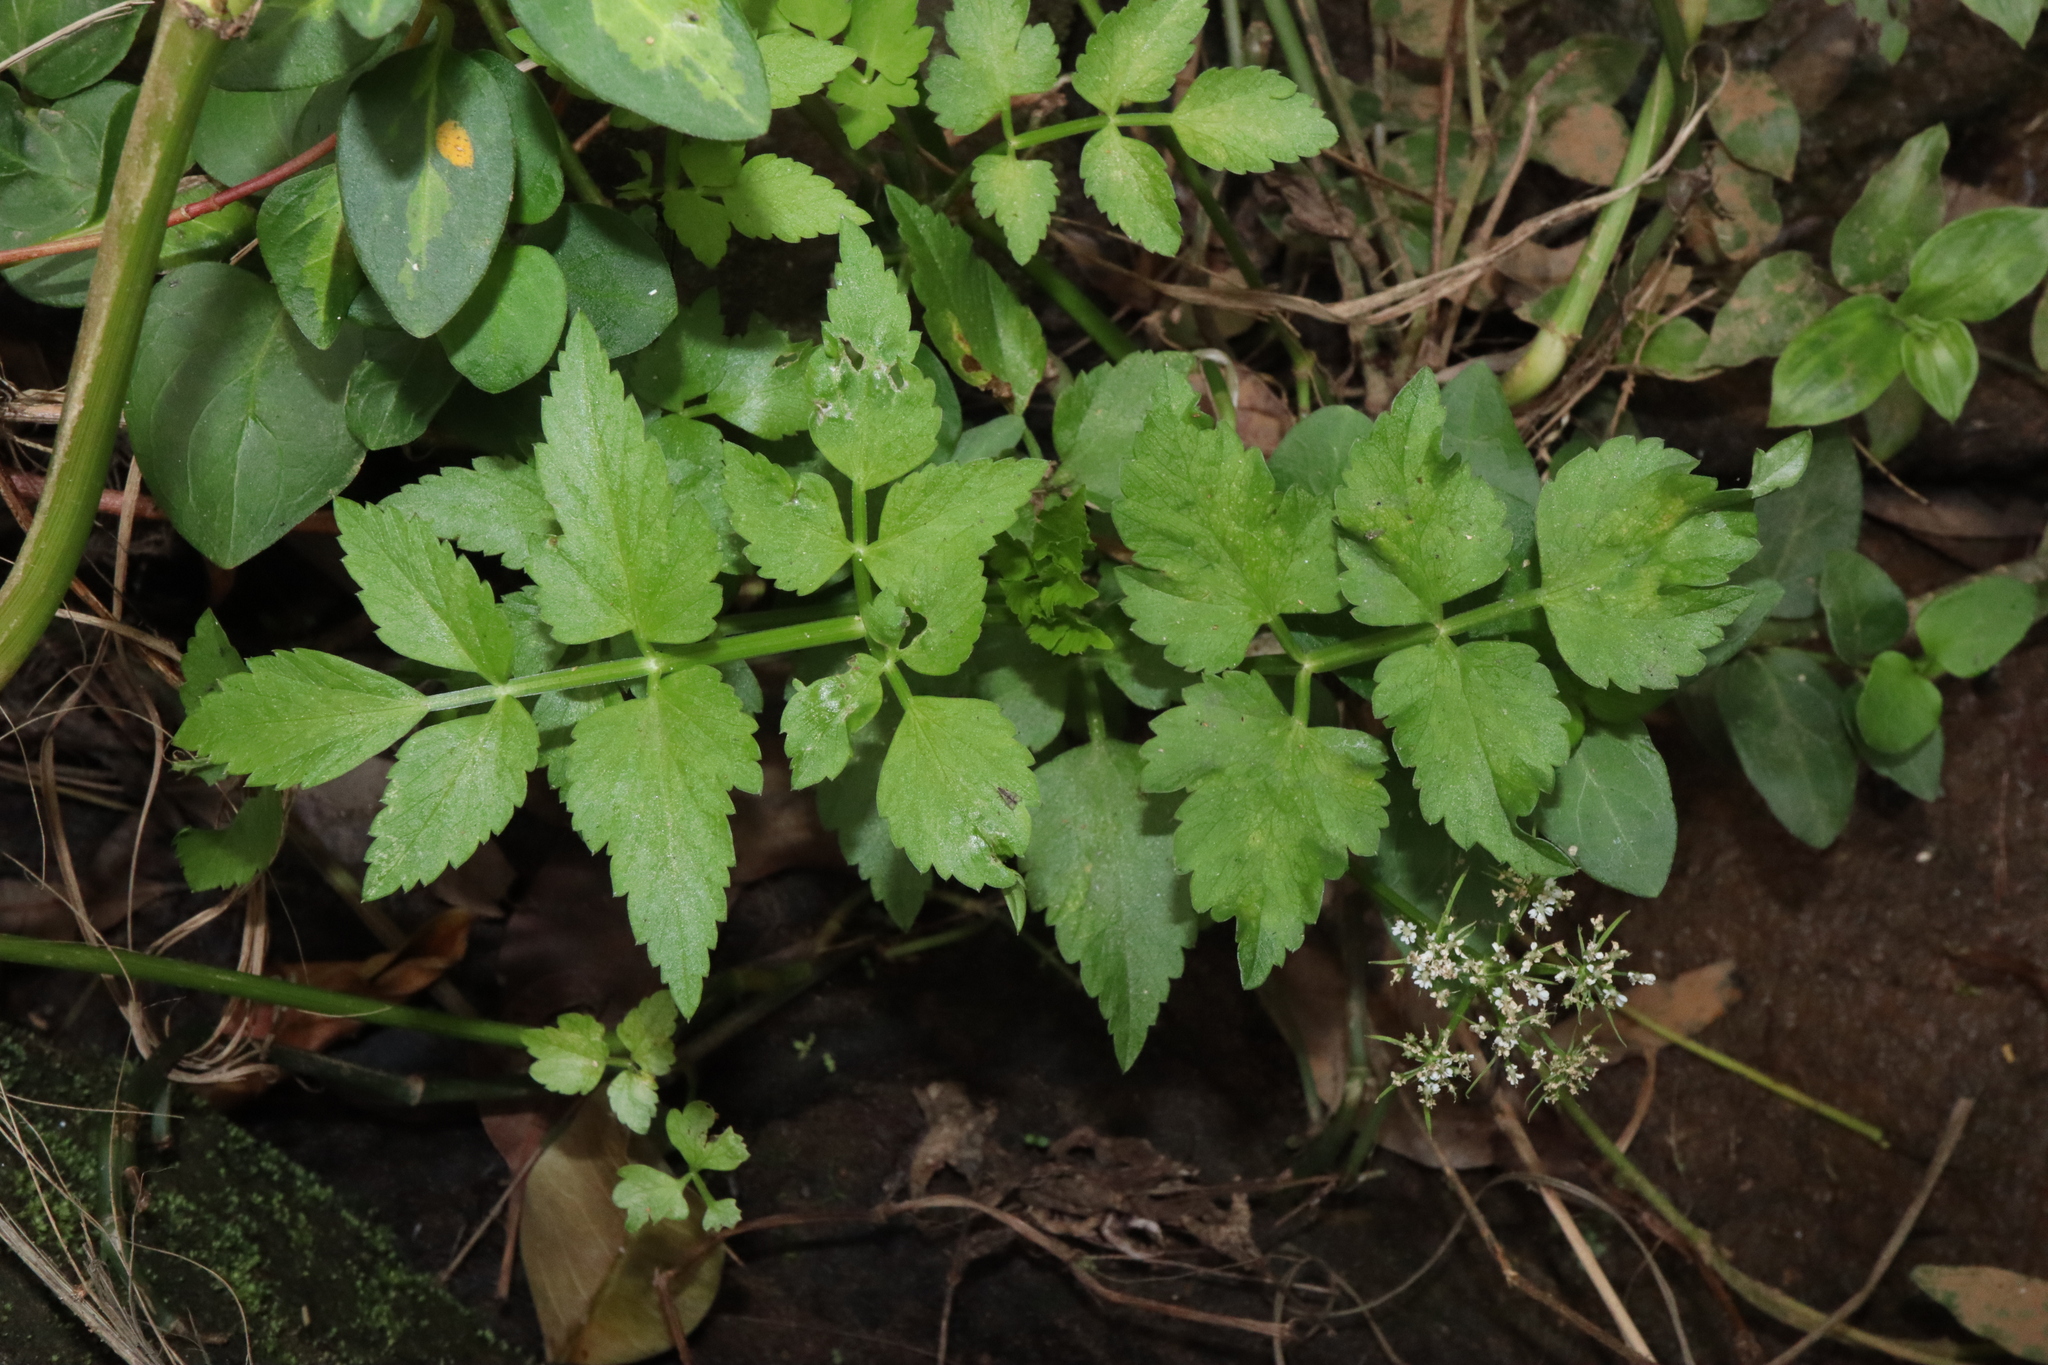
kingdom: Plantae
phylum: Tracheophyta
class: Magnoliopsida
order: Apiales
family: Apiaceae
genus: Oenanthe
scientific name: Oenanthe javanica
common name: Java water-dropwort
